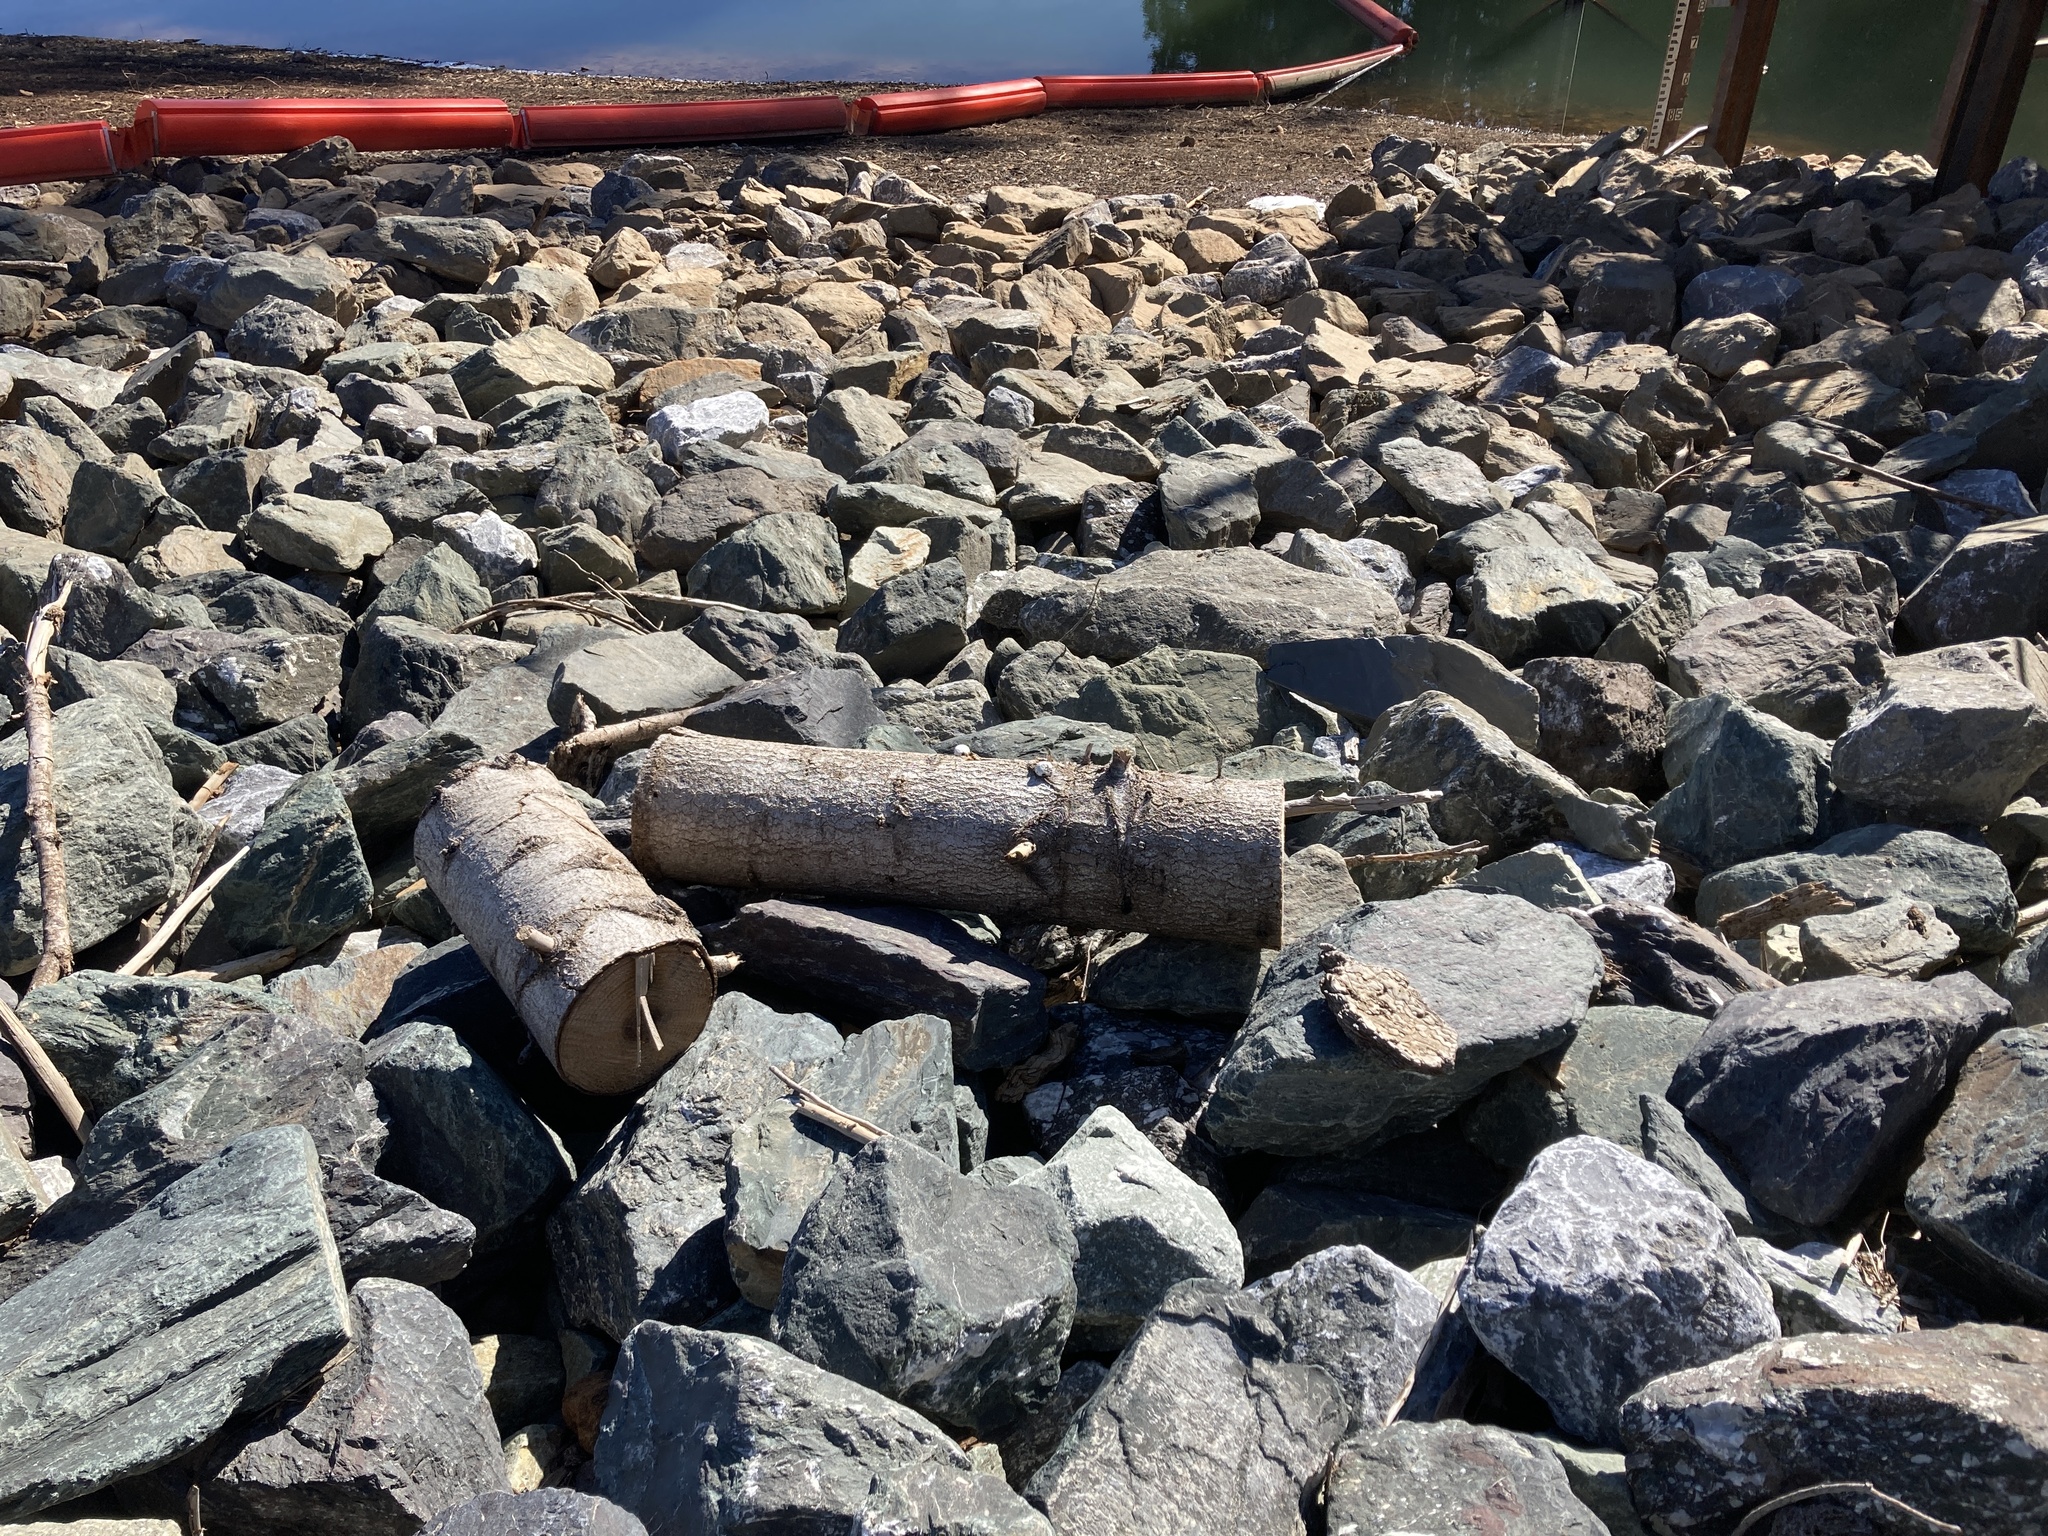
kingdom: Fungi
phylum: Basidiomycota
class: Agaricomycetes
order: Polyporales
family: Polyporaceae
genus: Cryptoporus
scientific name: Cryptoporus volvatus
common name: Veiled polypore
